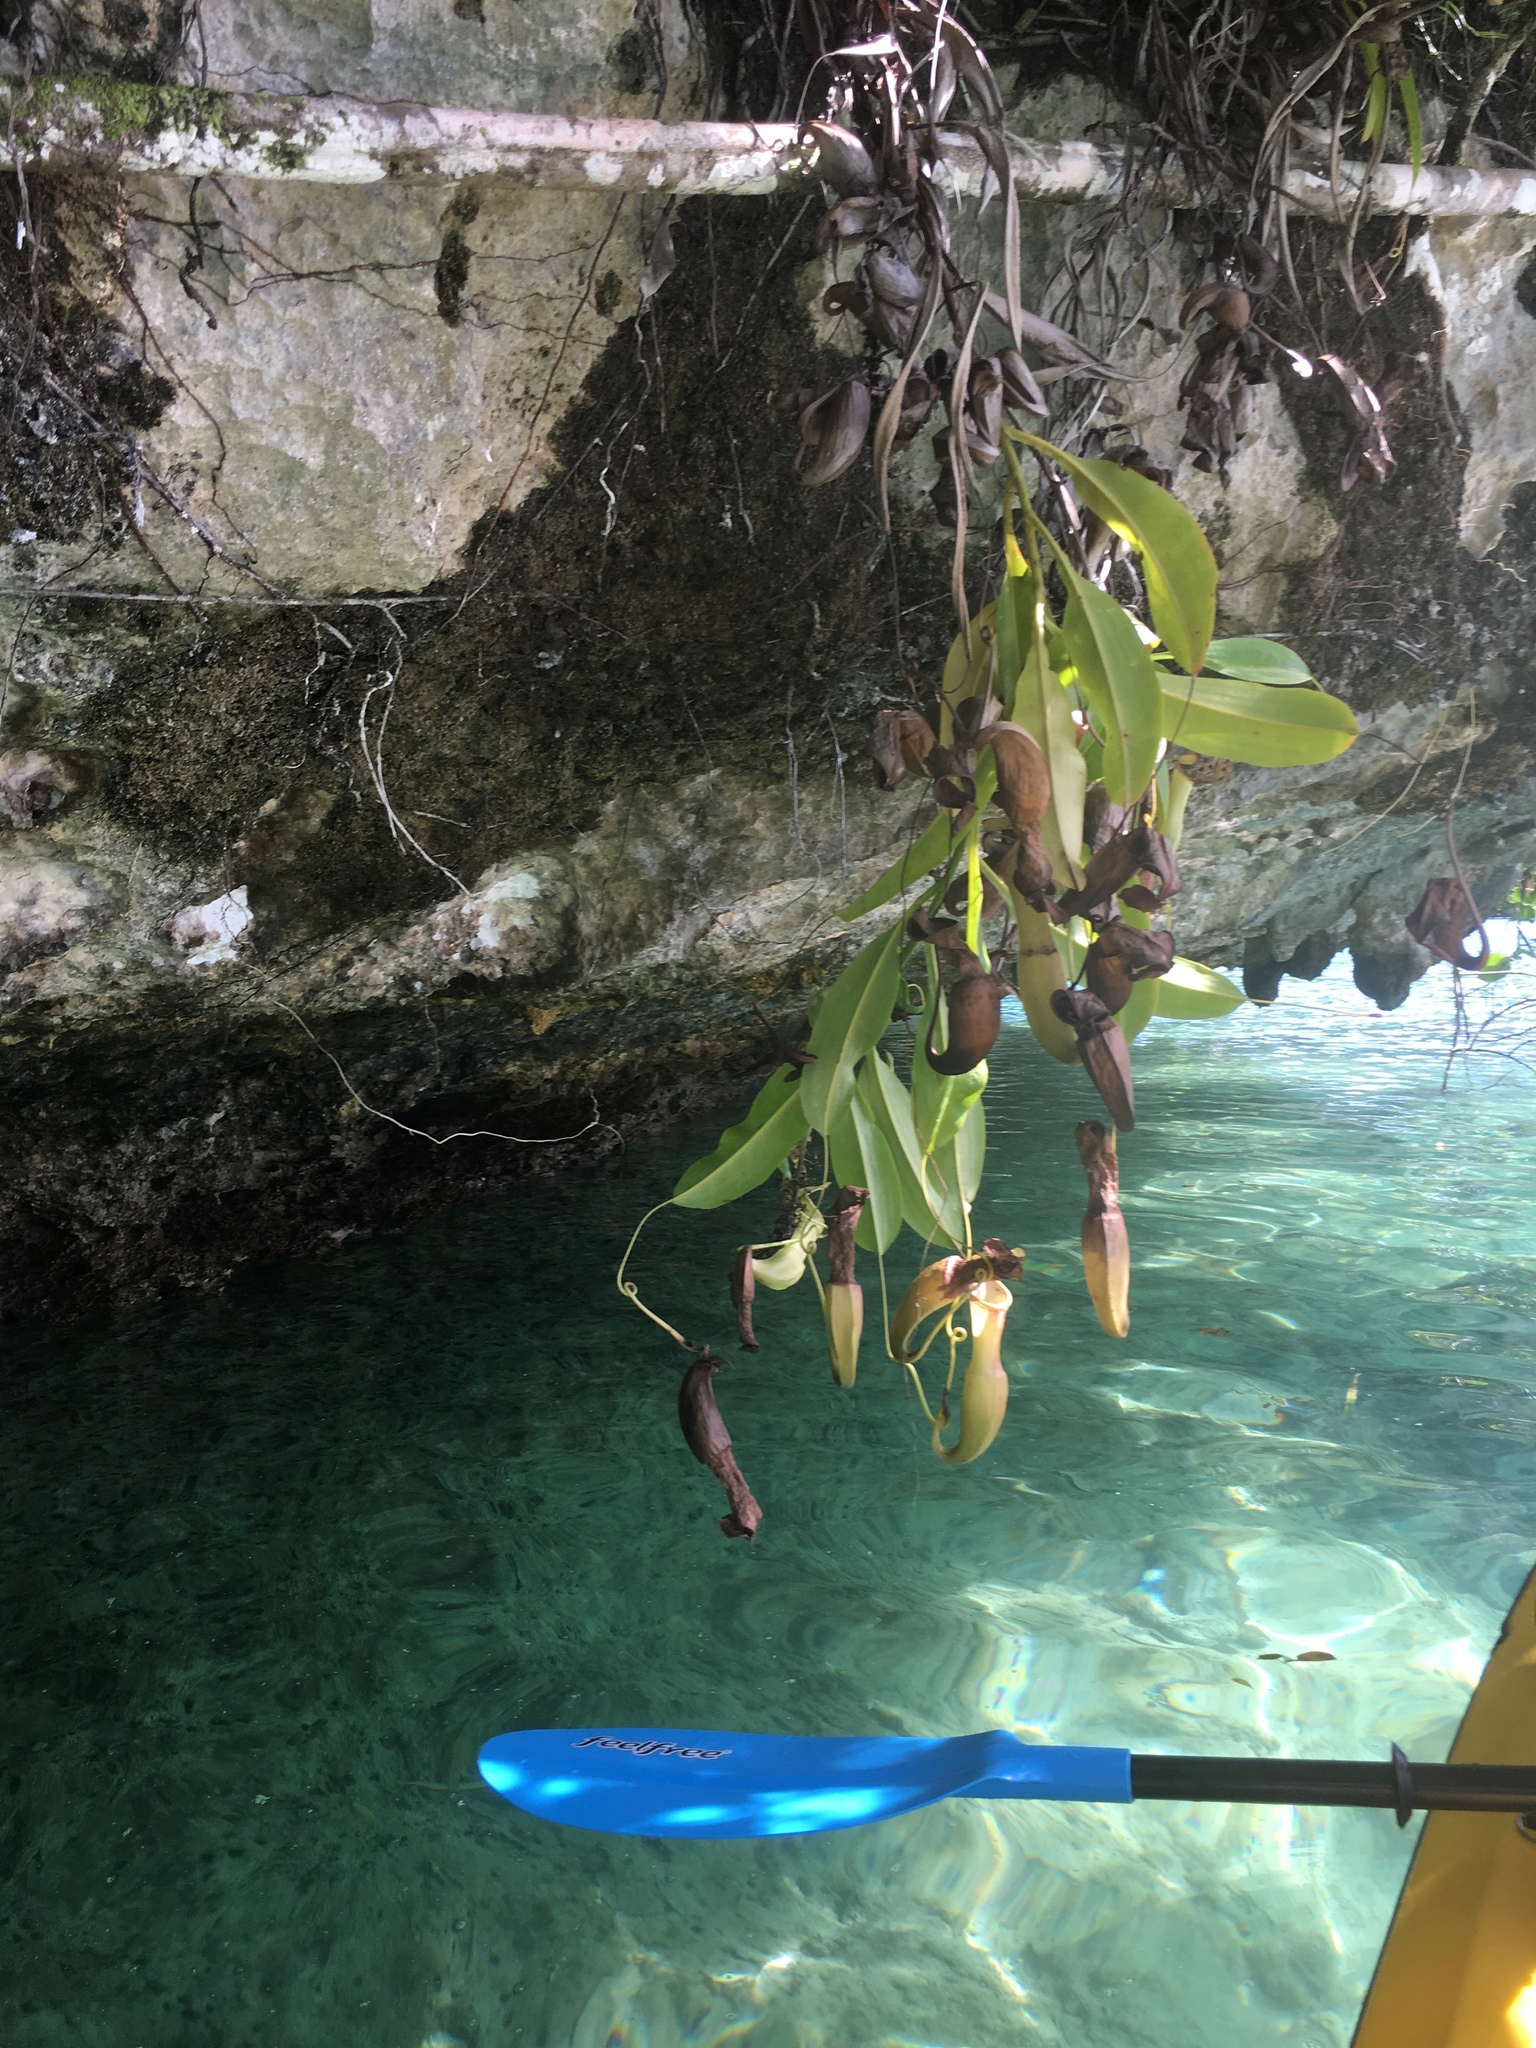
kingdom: Plantae
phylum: Tracheophyta
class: Magnoliopsida
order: Caryophyllales
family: Nepenthaceae
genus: Nepenthes
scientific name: Nepenthes mirabilis
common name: Tropical pitcherplant
